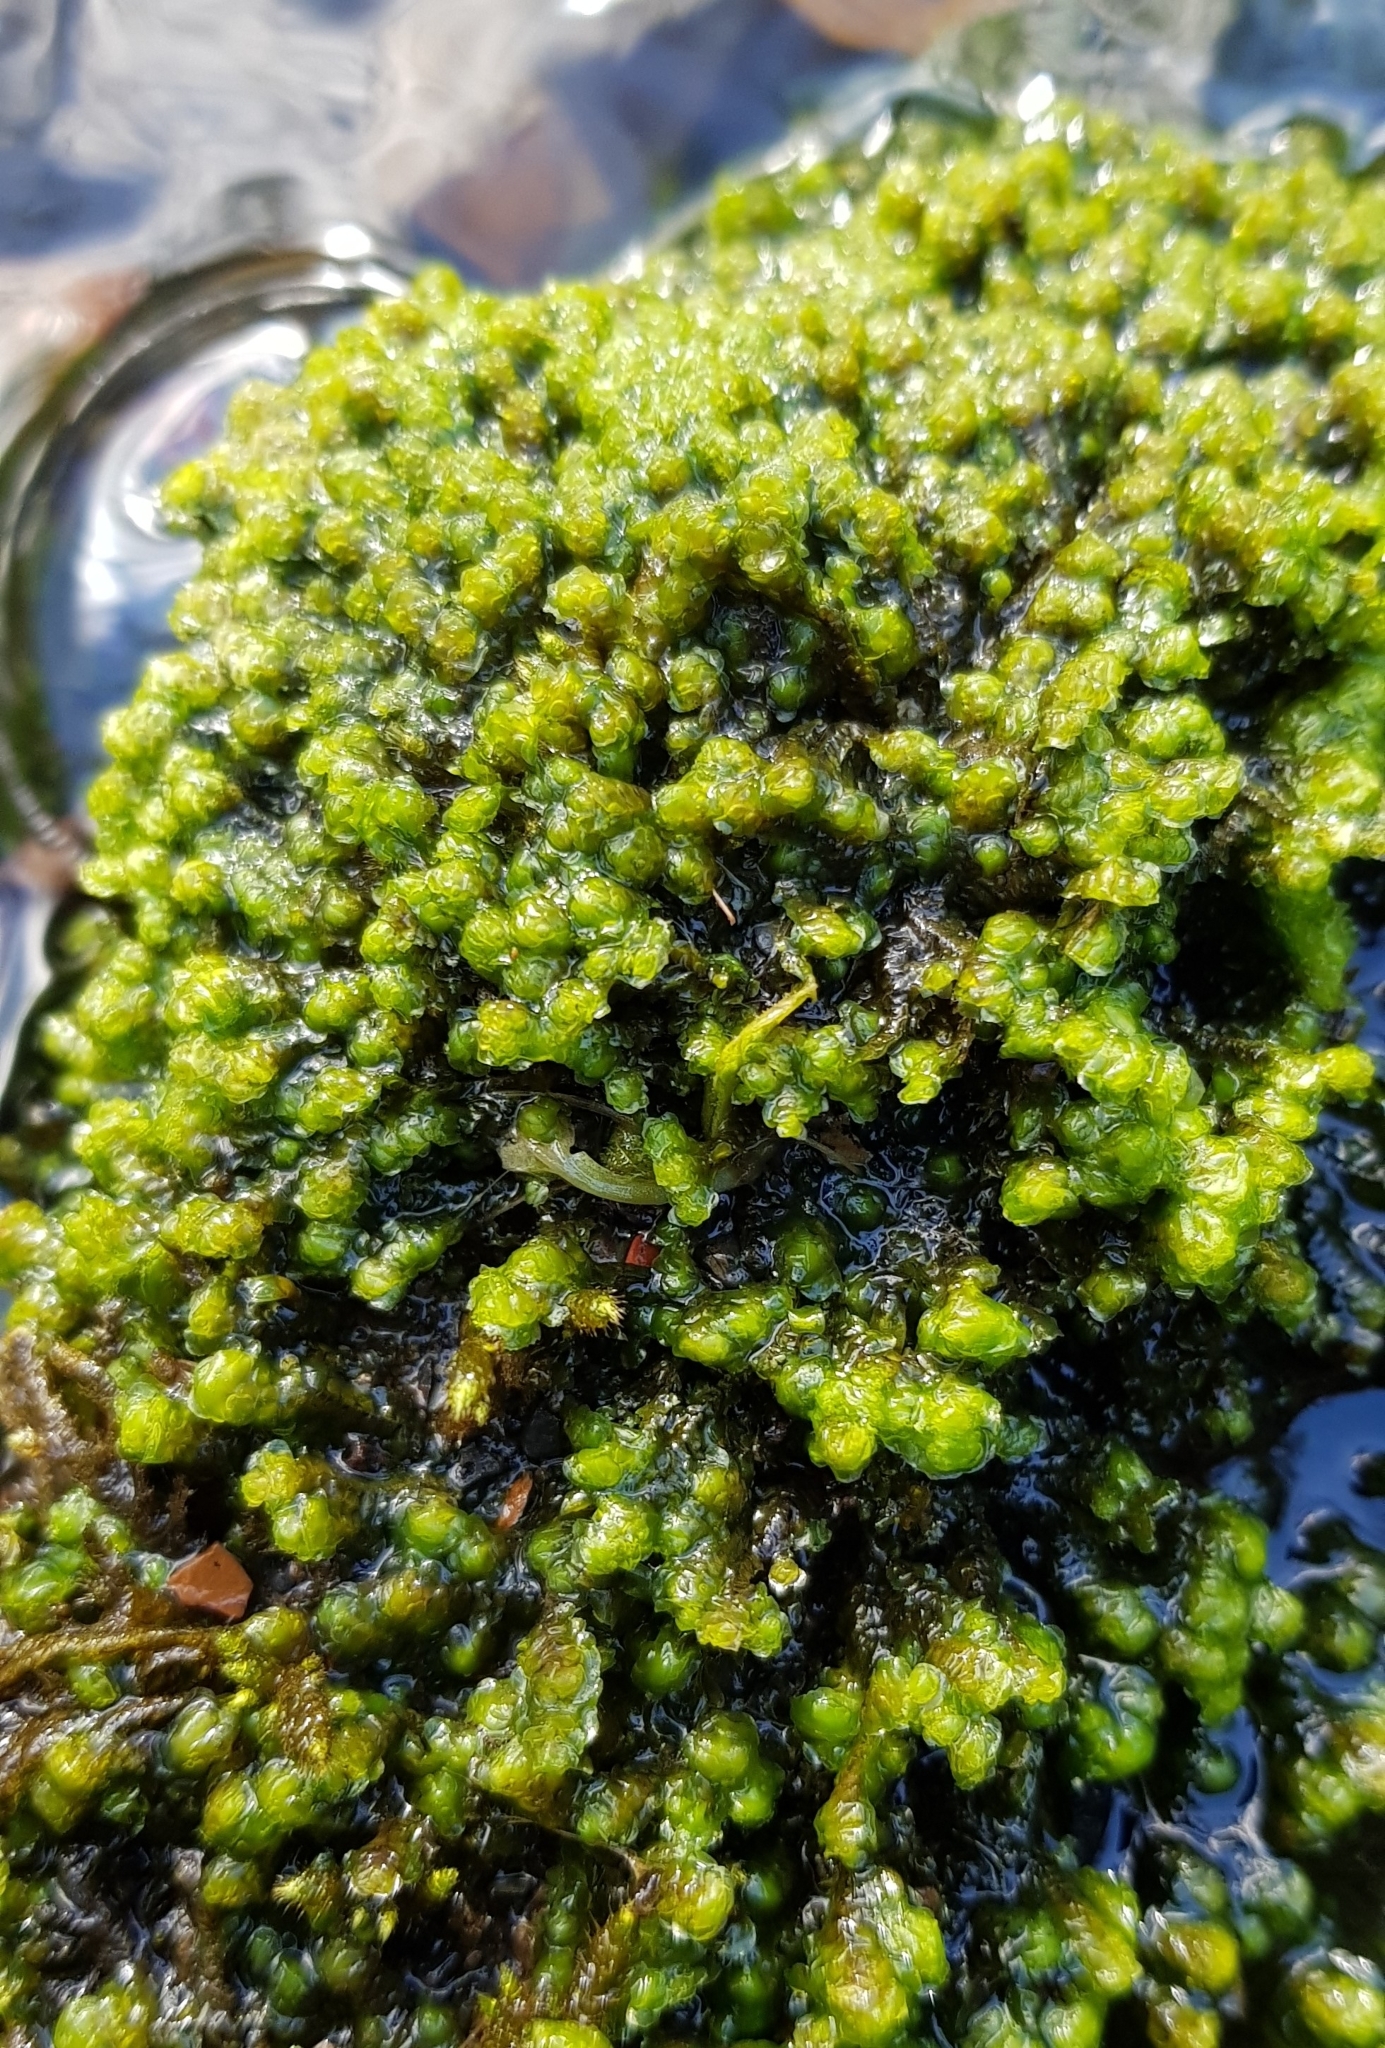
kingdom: Plantae
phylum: Marchantiophyta
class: Jungermanniopsida
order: Jungermanniales
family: Scapaniaceae
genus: Scapania
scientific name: Scapania undulata
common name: Water earwort
